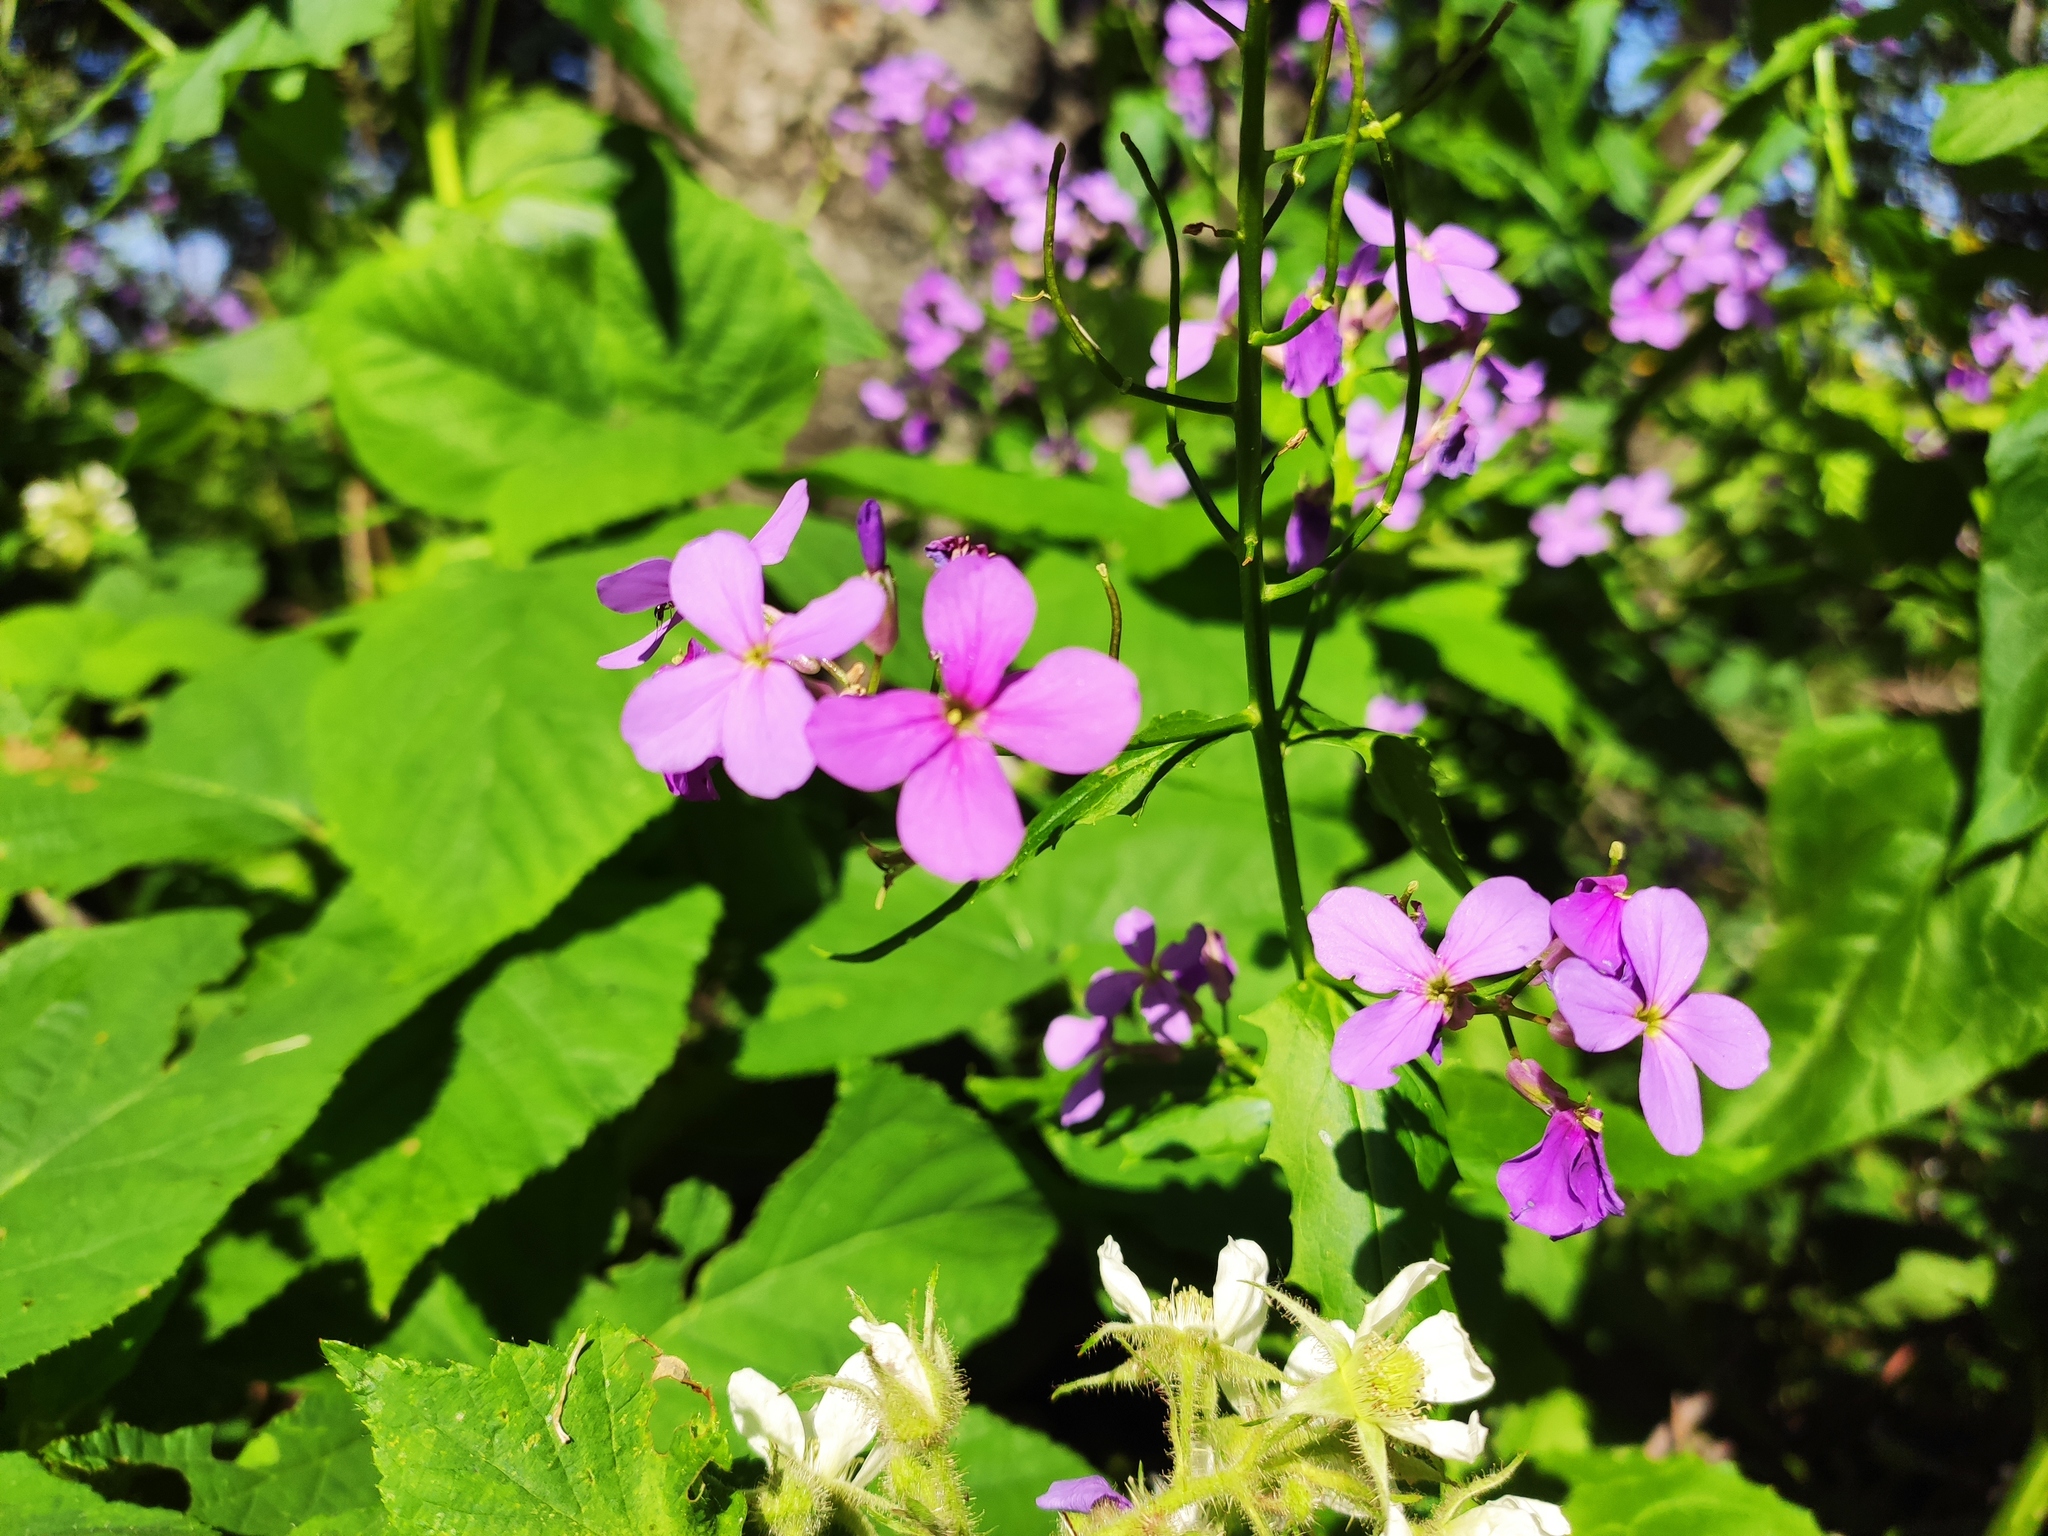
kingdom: Plantae
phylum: Tracheophyta
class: Magnoliopsida
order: Brassicales
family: Brassicaceae
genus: Hesperis
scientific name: Hesperis matronalis
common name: Dame's-violet
